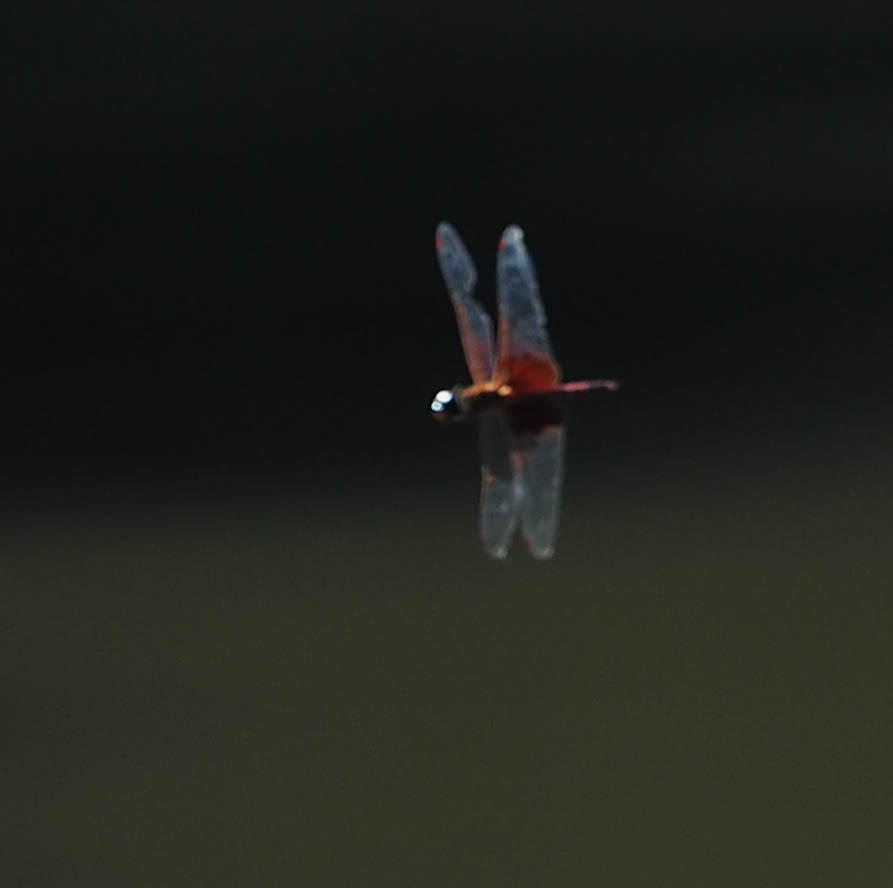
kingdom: Animalia
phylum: Arthropoda
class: Insecta
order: Odonata
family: Libellulidae
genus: Tramea
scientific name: Tramea carolina
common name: Carolina saddlebags
